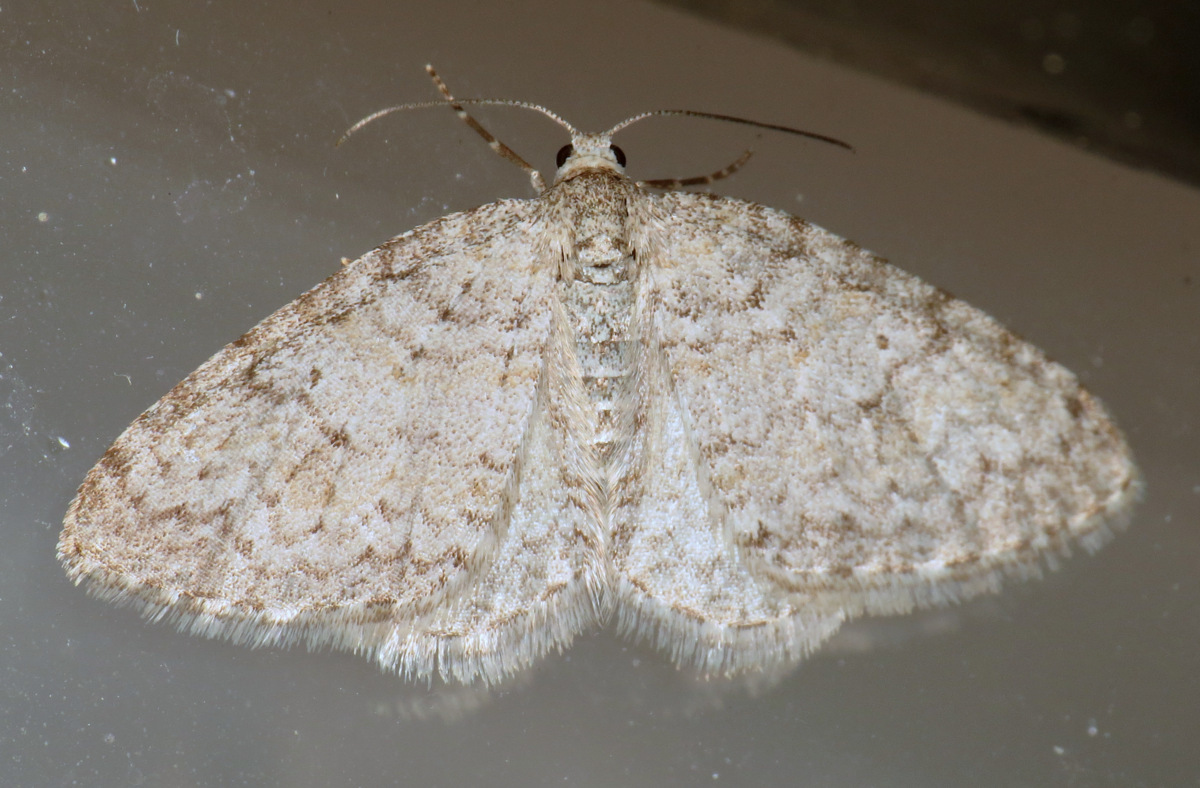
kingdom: Animalia
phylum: Arthropoda
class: Insecta
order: Lepidoptera
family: Geometridae
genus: Venusia
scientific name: Venusia comptaria
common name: Brown-shaded carpet
